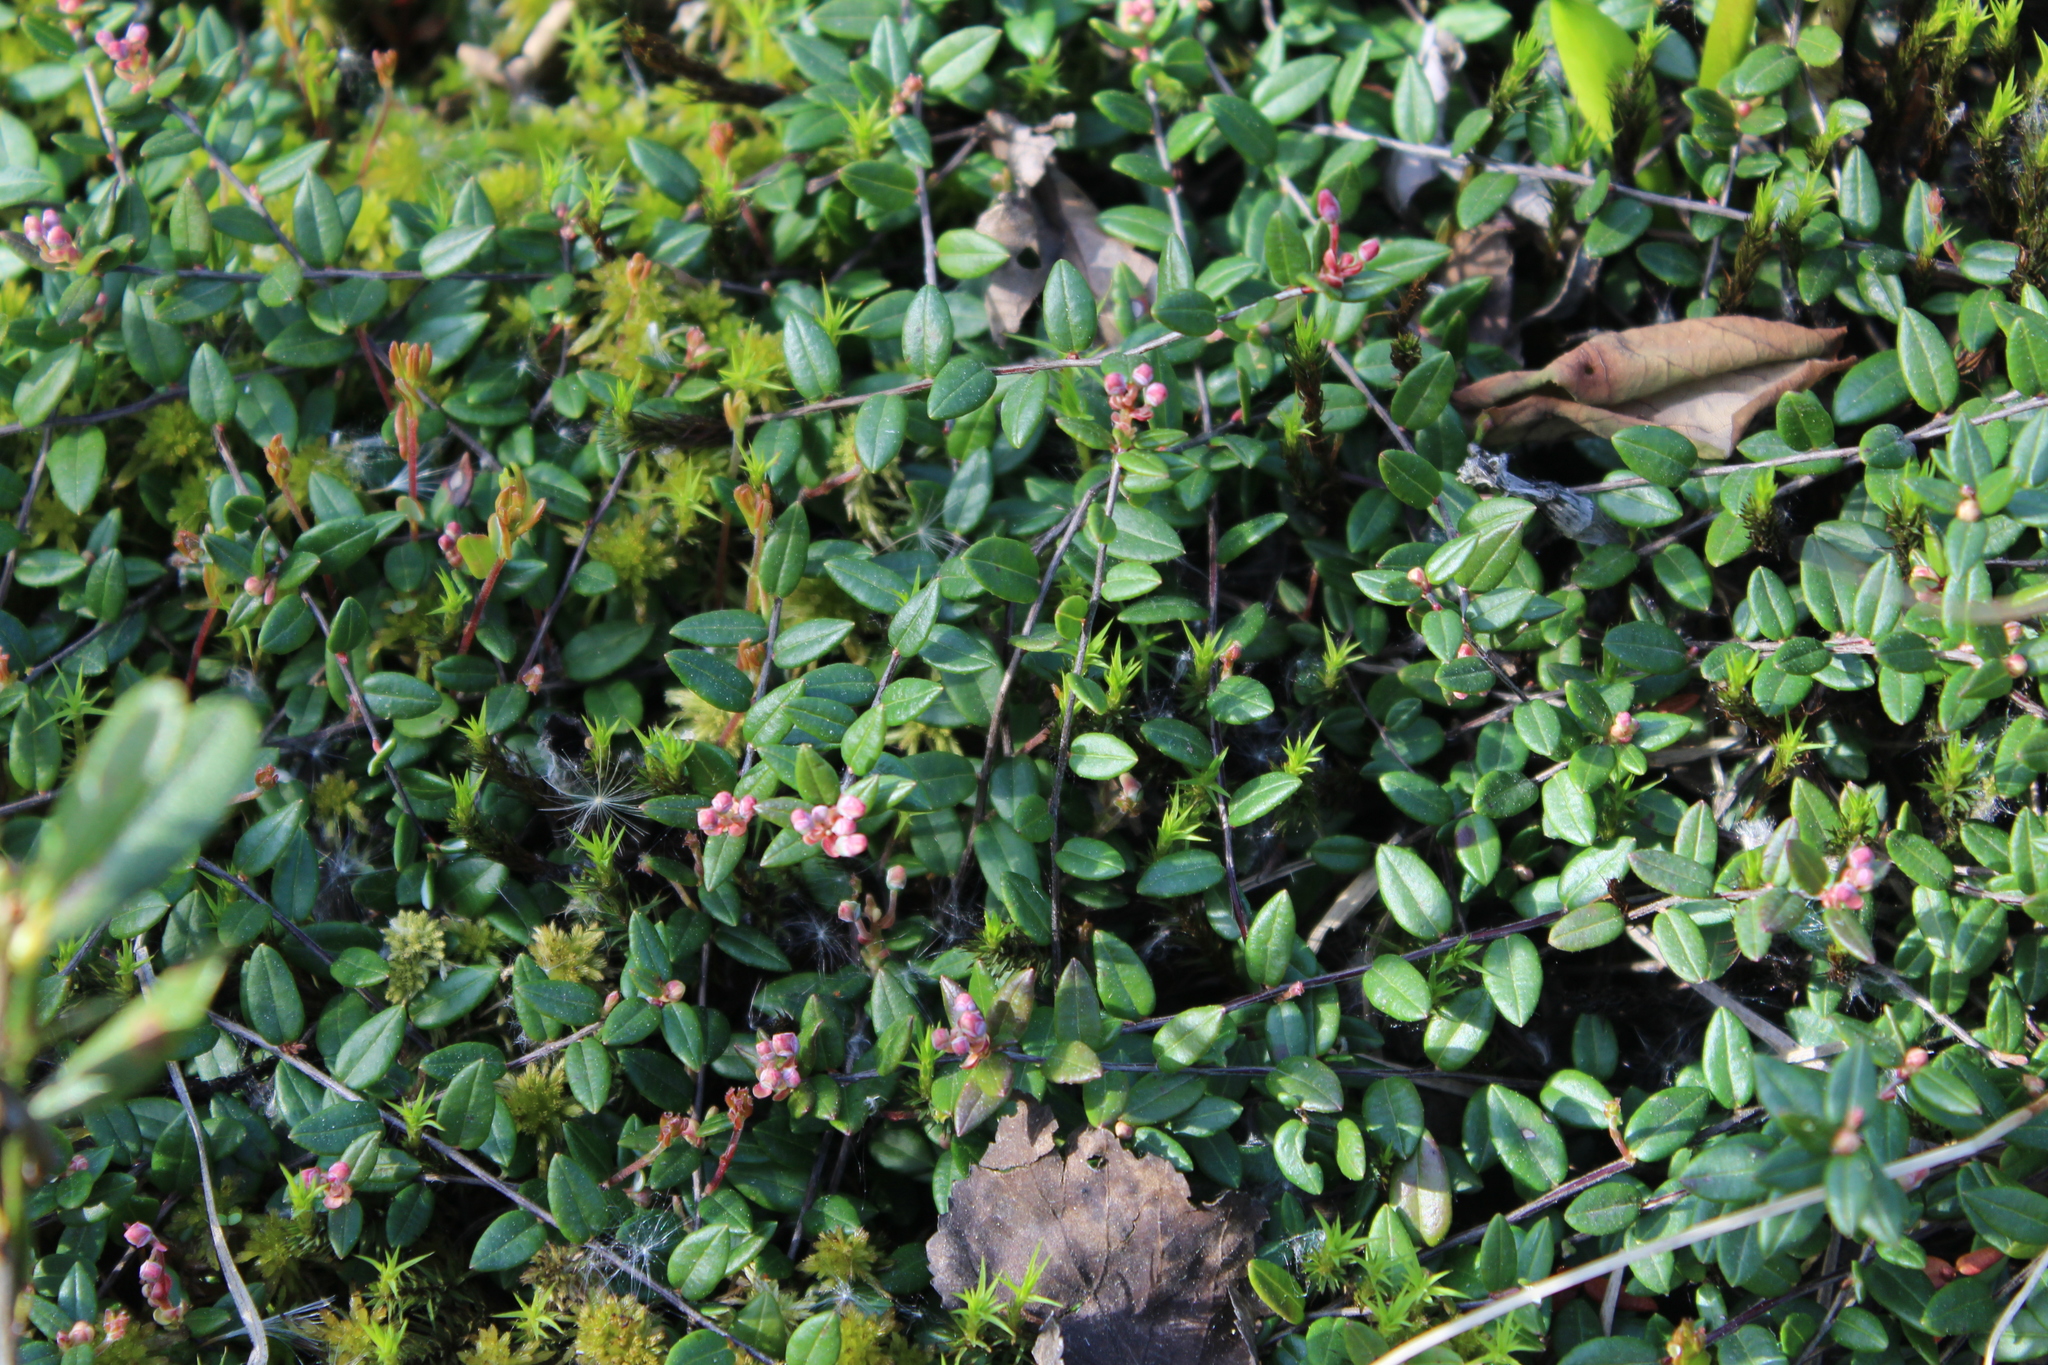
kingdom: Plantae
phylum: Tracheophyta
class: Magnoliopsida
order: Ericales
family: Ericaceae
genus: Vaccinium
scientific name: Vaccinium oxycoccos
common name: Cranberry
